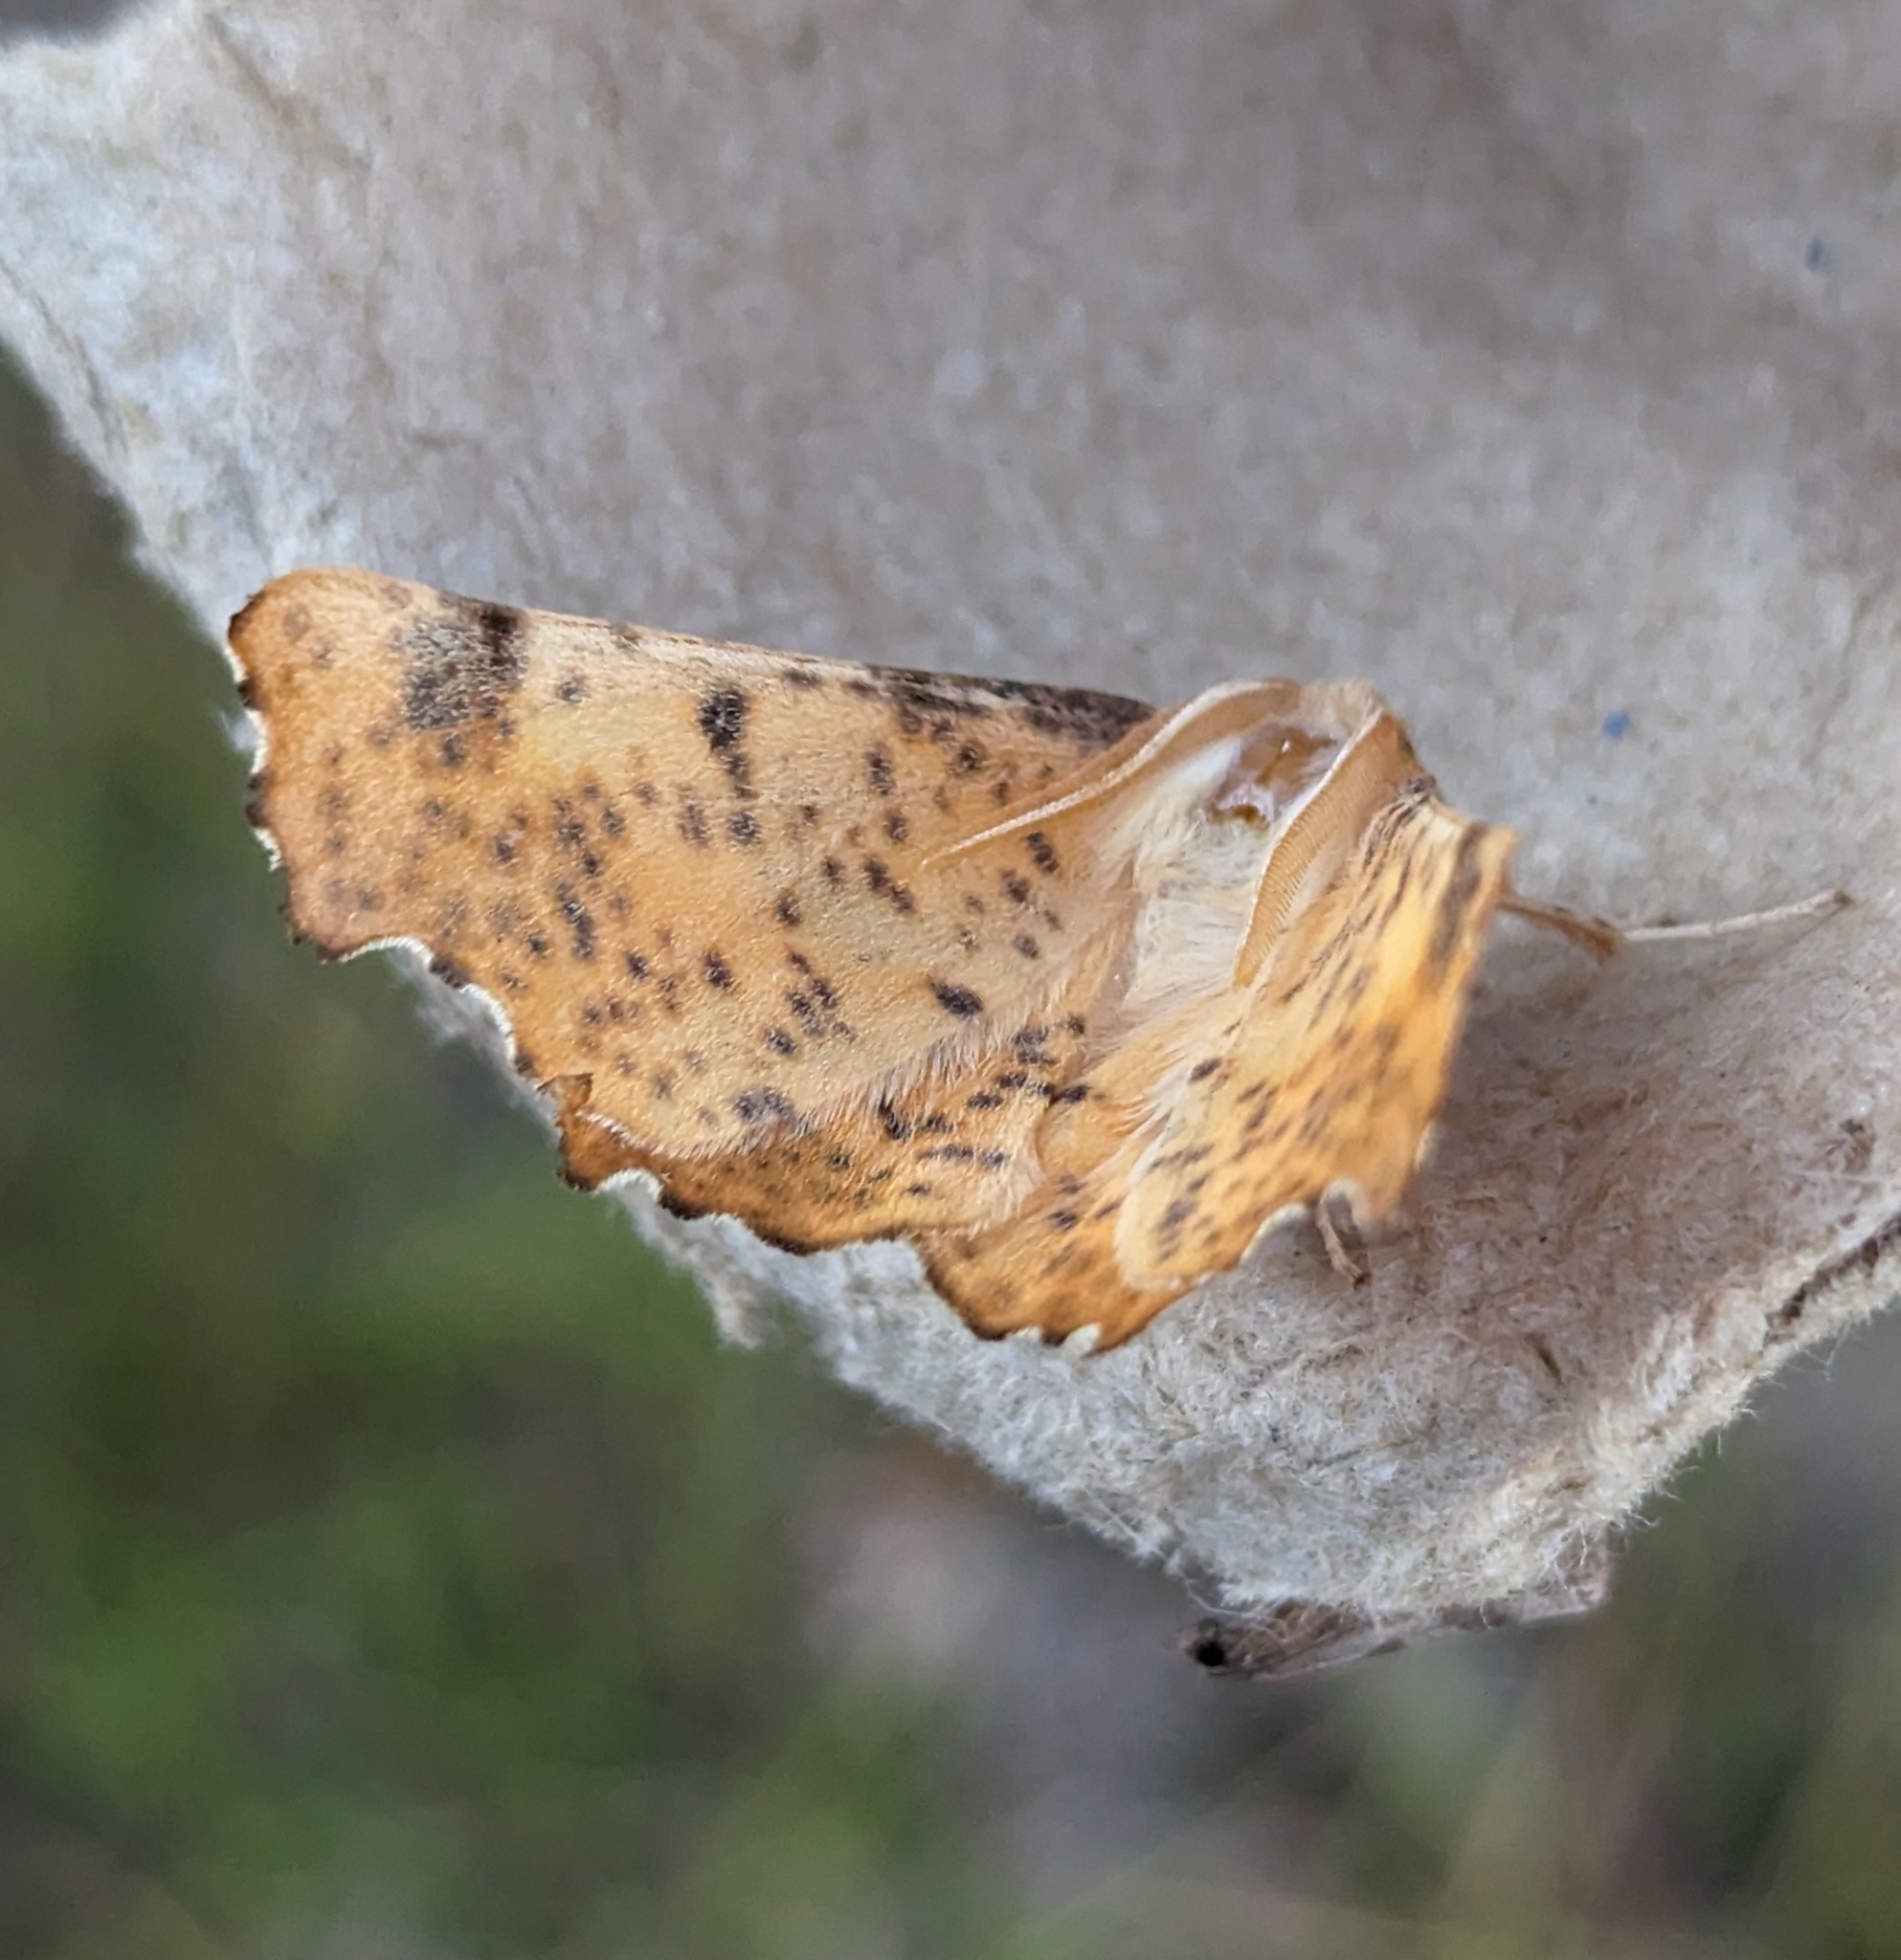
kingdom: Animalia
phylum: Arthropoda
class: Insecta
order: Lepidoptera
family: Geometridae
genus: Ennomos
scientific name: Ennomos magnaria
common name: Maple spanworm
